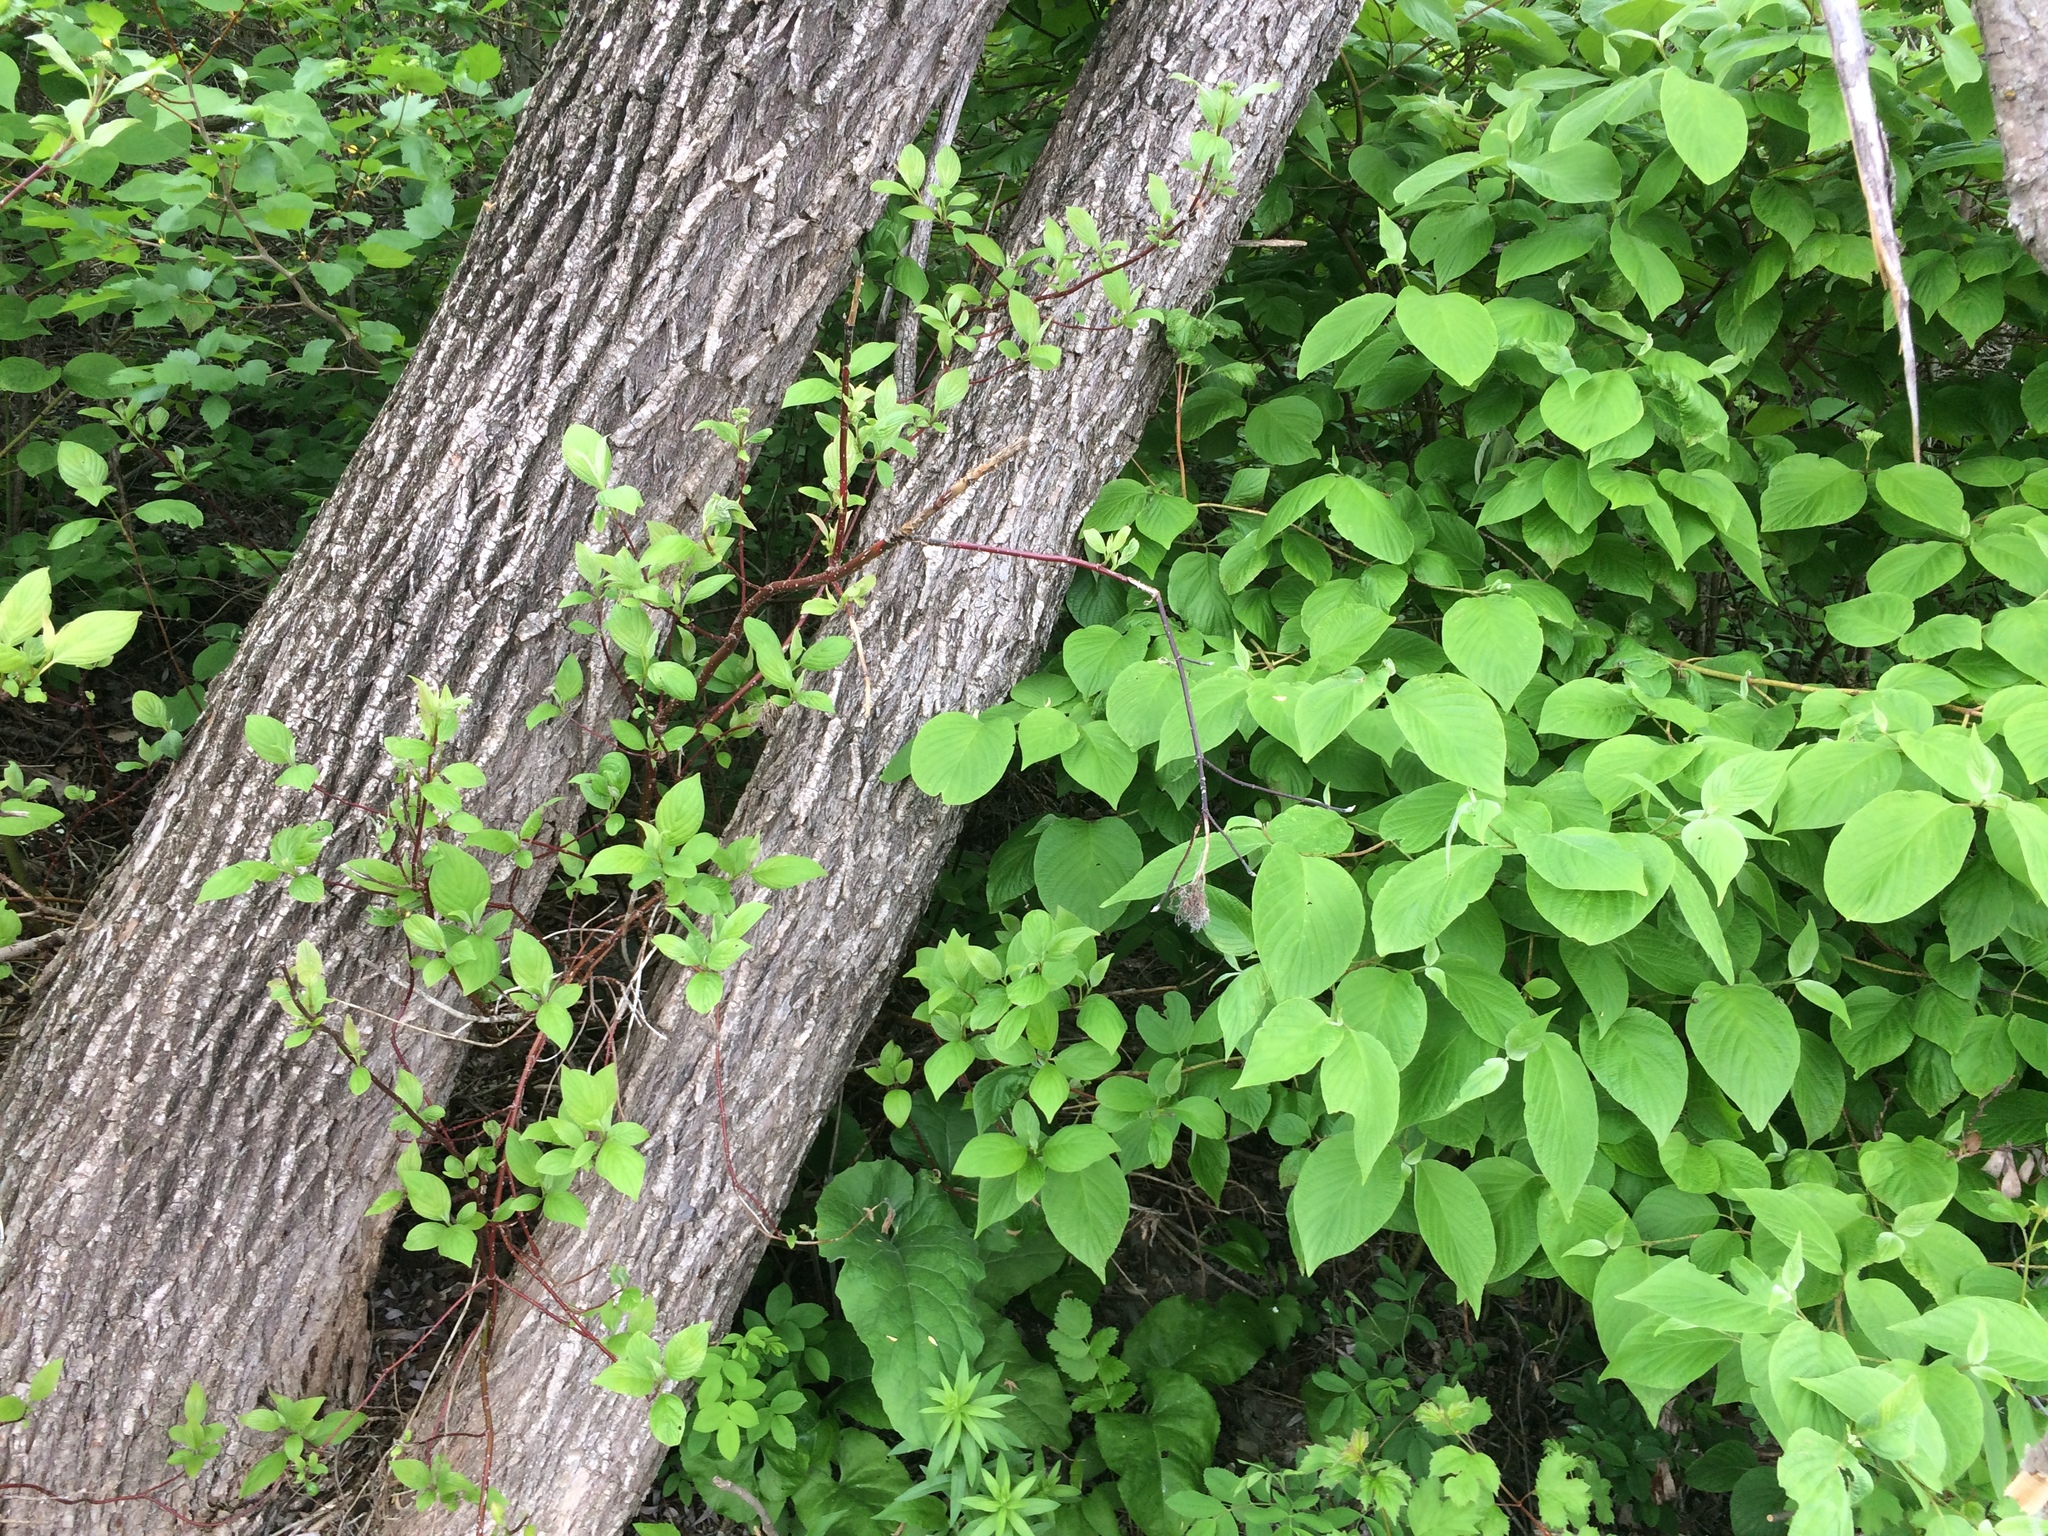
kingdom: Plantae
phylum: Tracheophyta
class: Magnoliopsida
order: Cornales
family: Cornaceae
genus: Cornus
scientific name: Cornus sericea
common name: Red-osier dogwood
